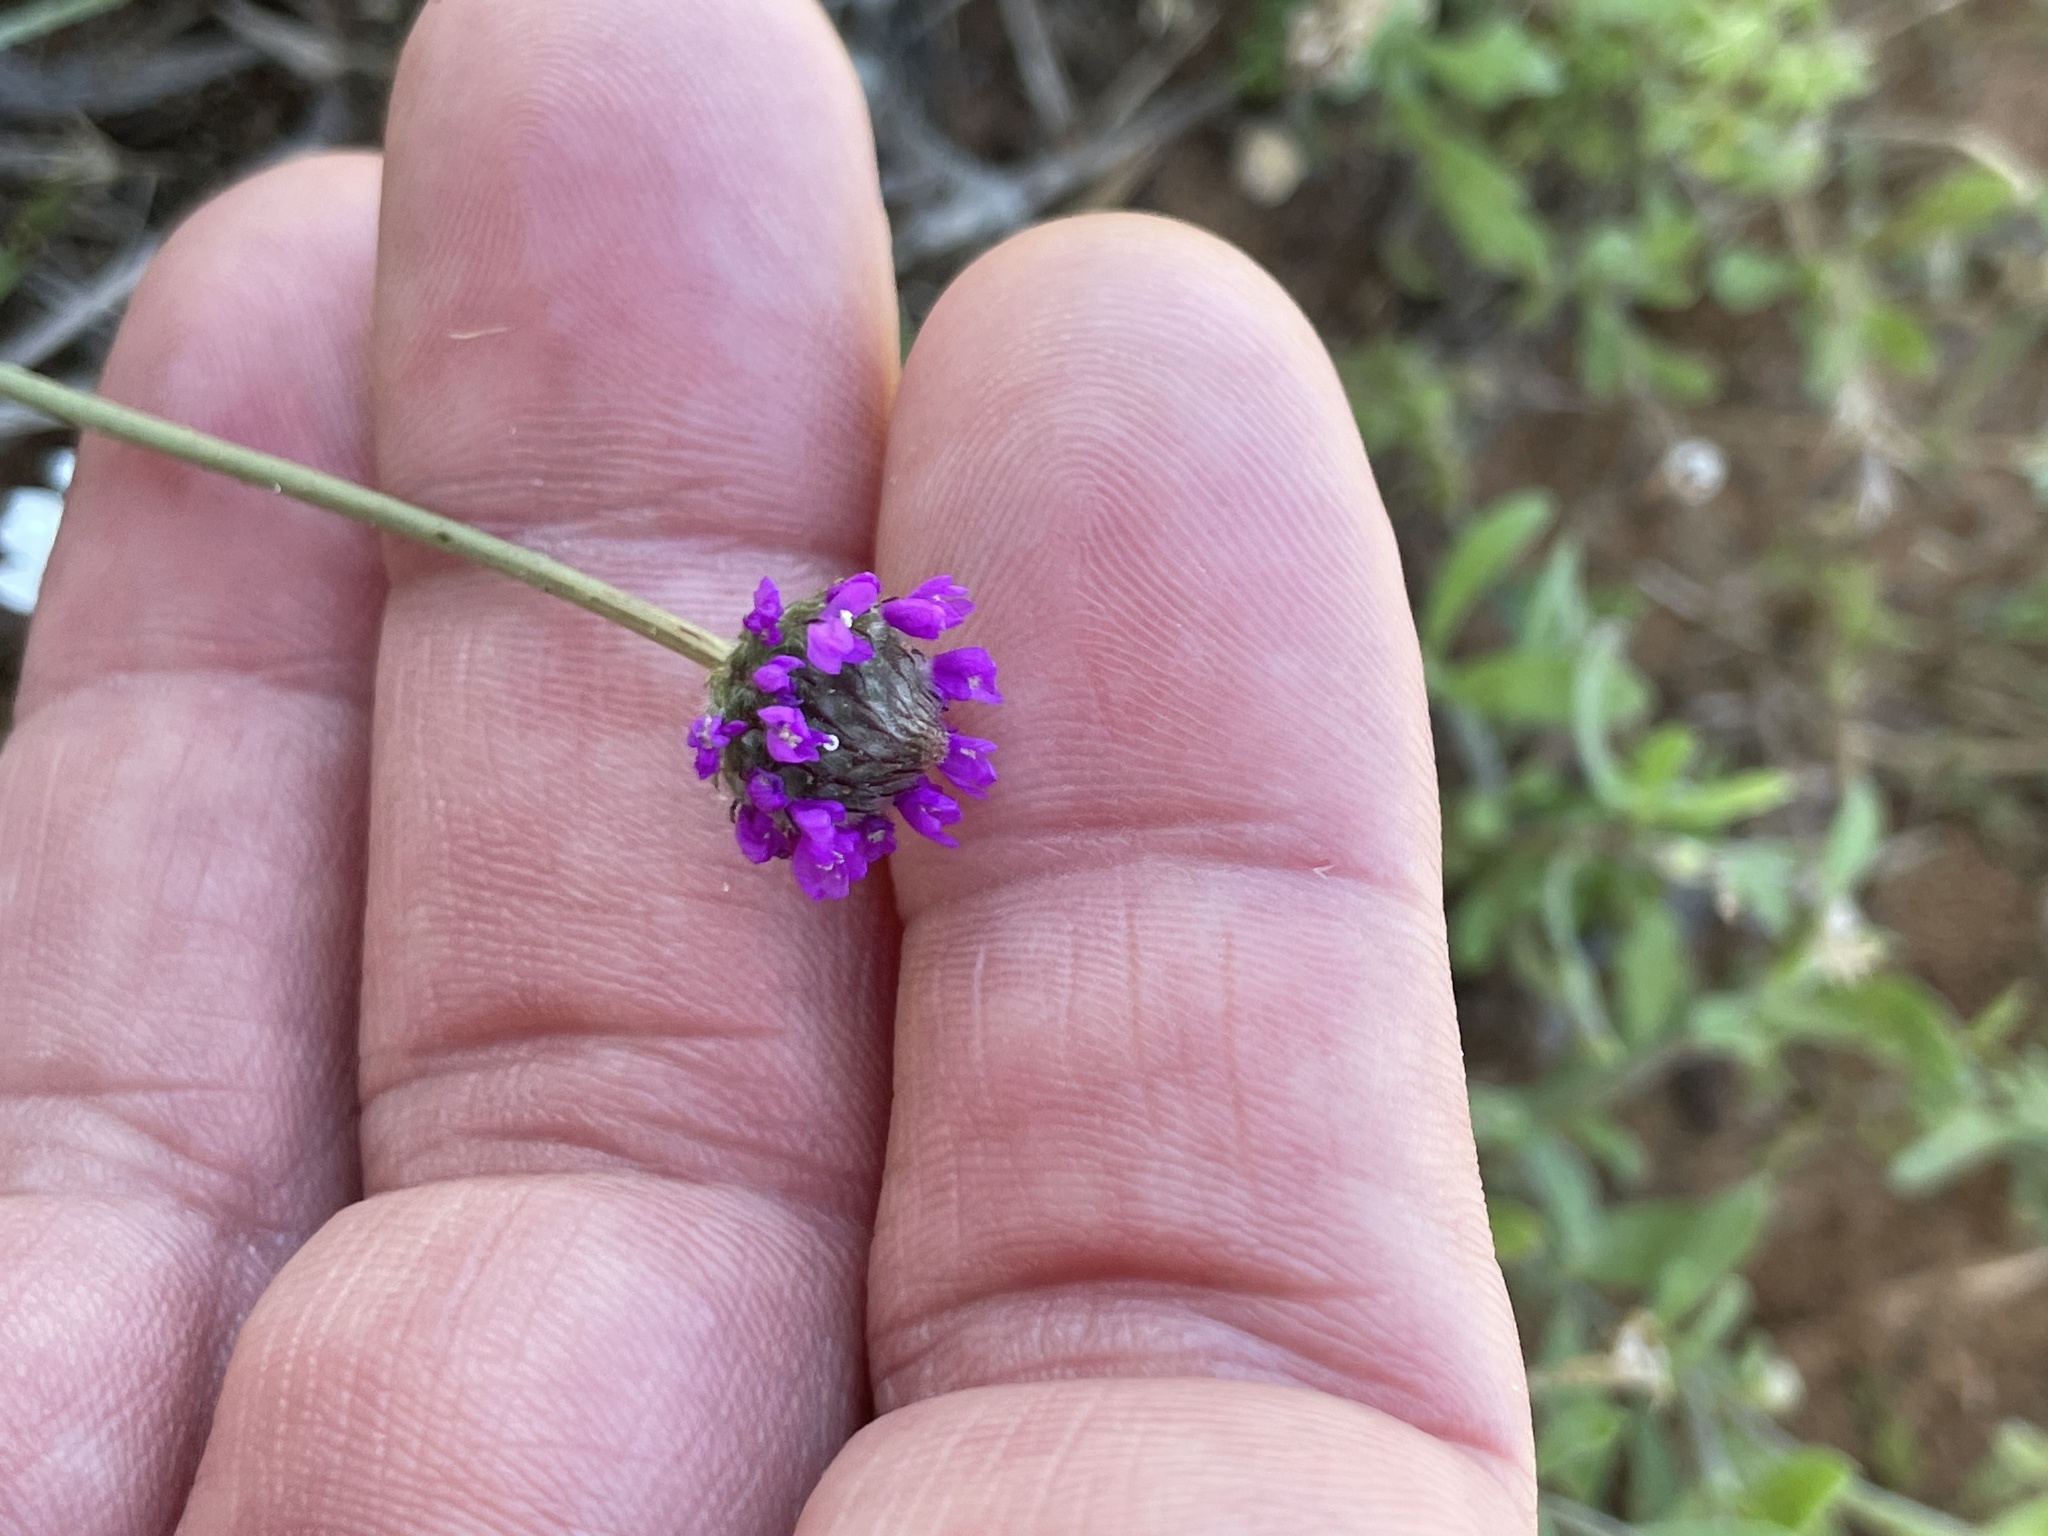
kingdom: Plantae
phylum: Tracheophyta
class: Magnoliopsida
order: Fabales
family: Fabaceae
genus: Dalea
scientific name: Dalea emarginata
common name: Wedgeleaf prairie clover
